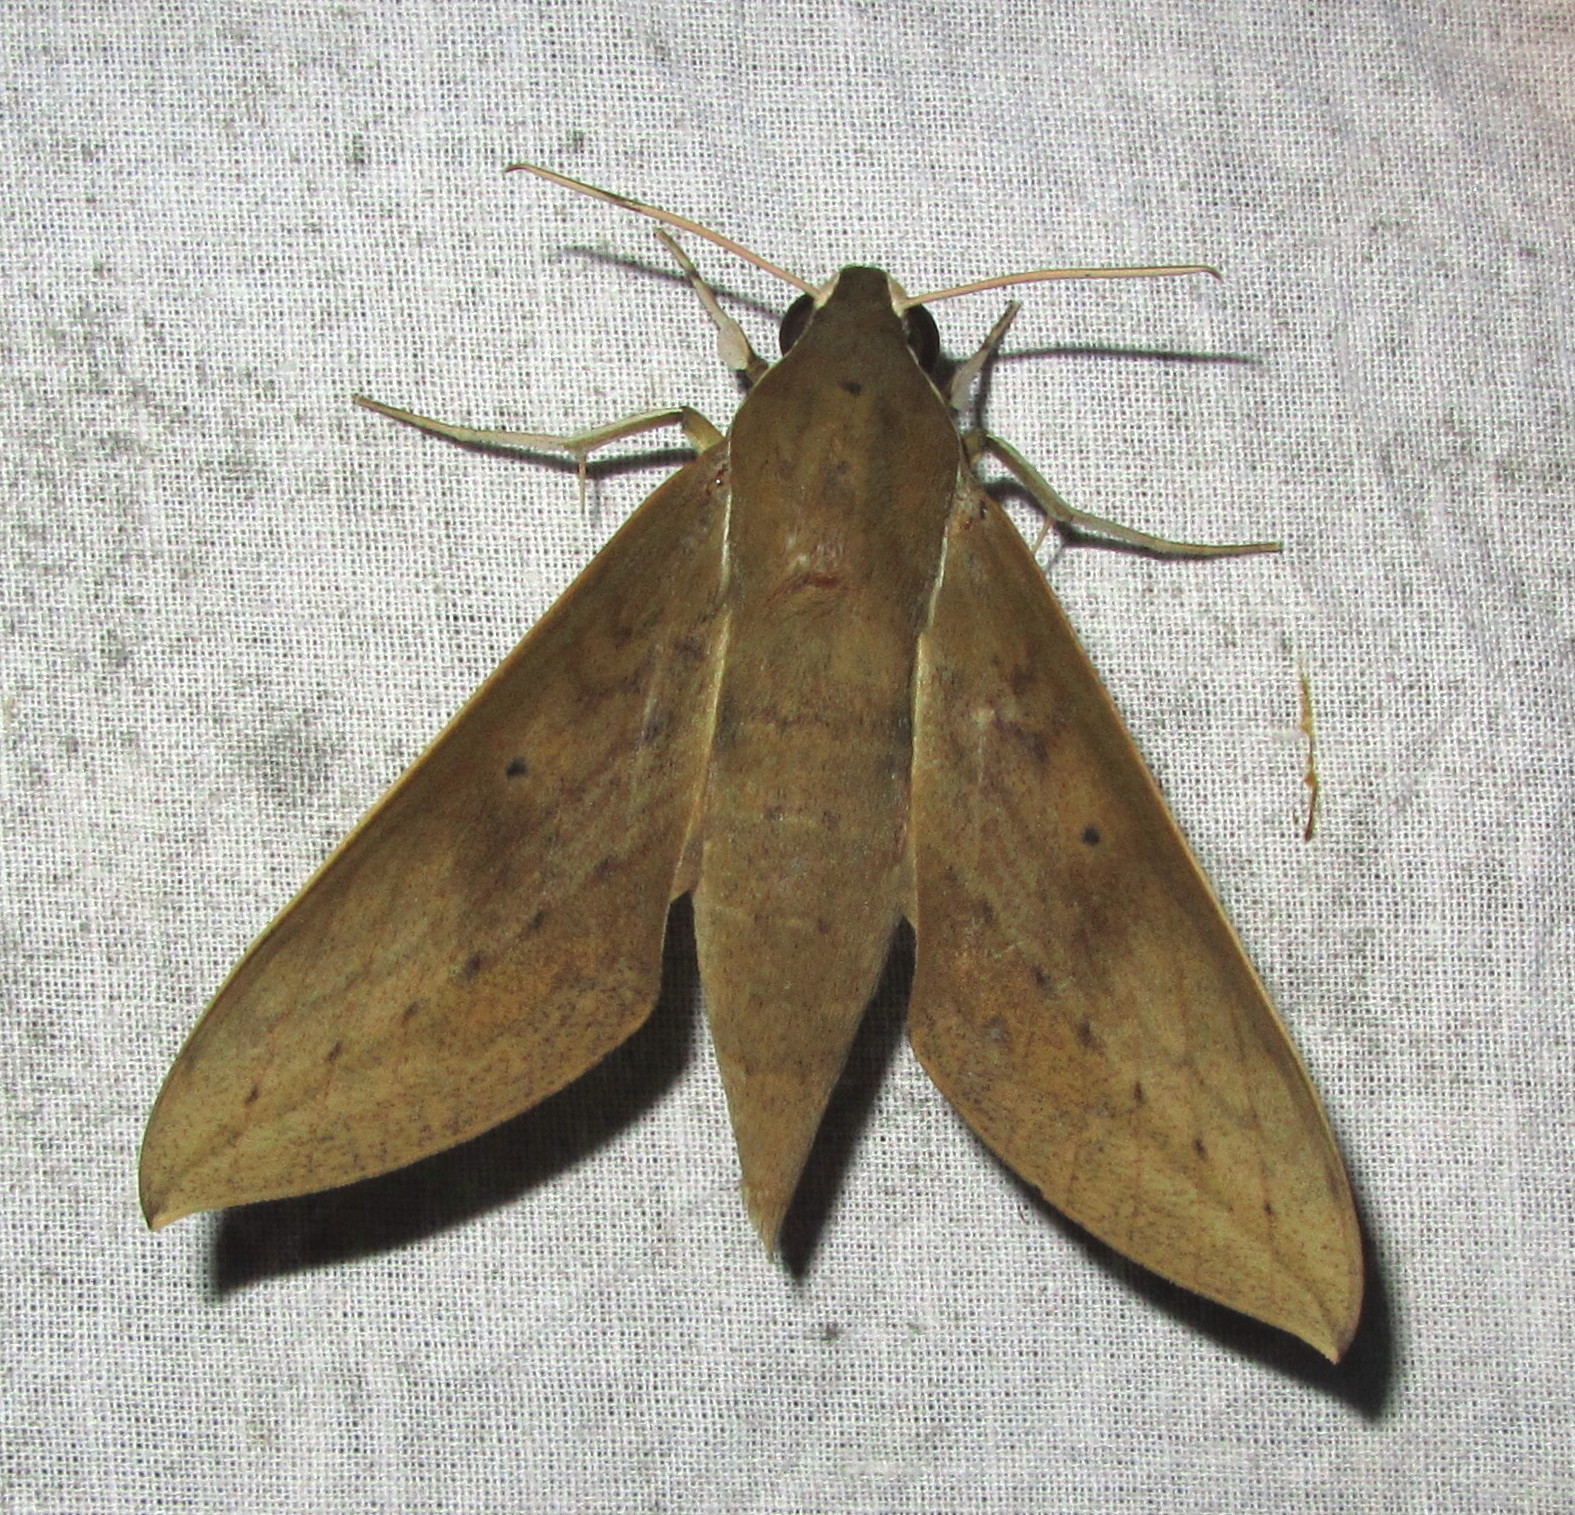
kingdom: Animalia
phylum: Arthropoda
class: Insecta
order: Lepidoptera
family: Sphingidae
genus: Theretra
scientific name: Theretra boisduvalii
